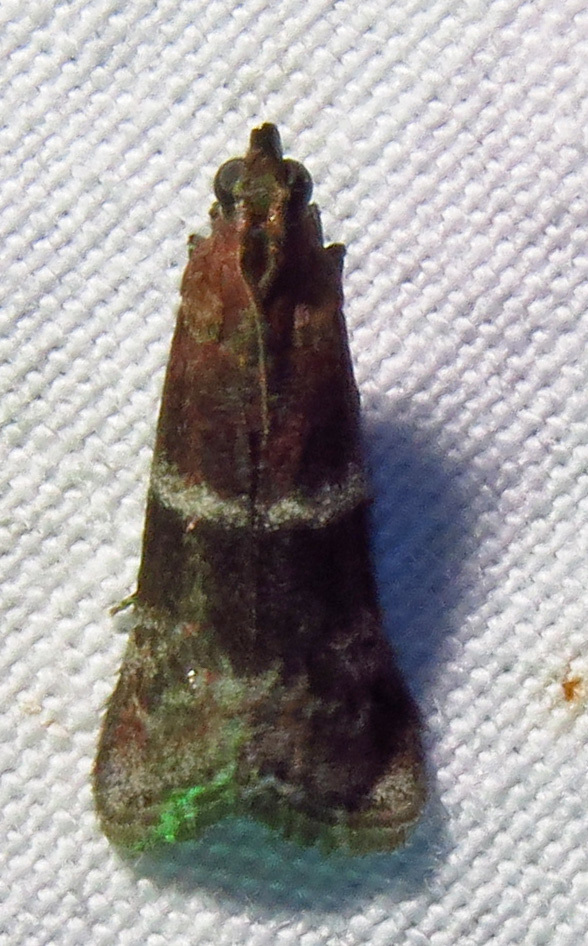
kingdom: Animalia
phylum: Arthropoda
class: Insecta
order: Lepidoptera
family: Pyralidae
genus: Moodna
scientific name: Moodna ostrinella
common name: Darker moodna moth
